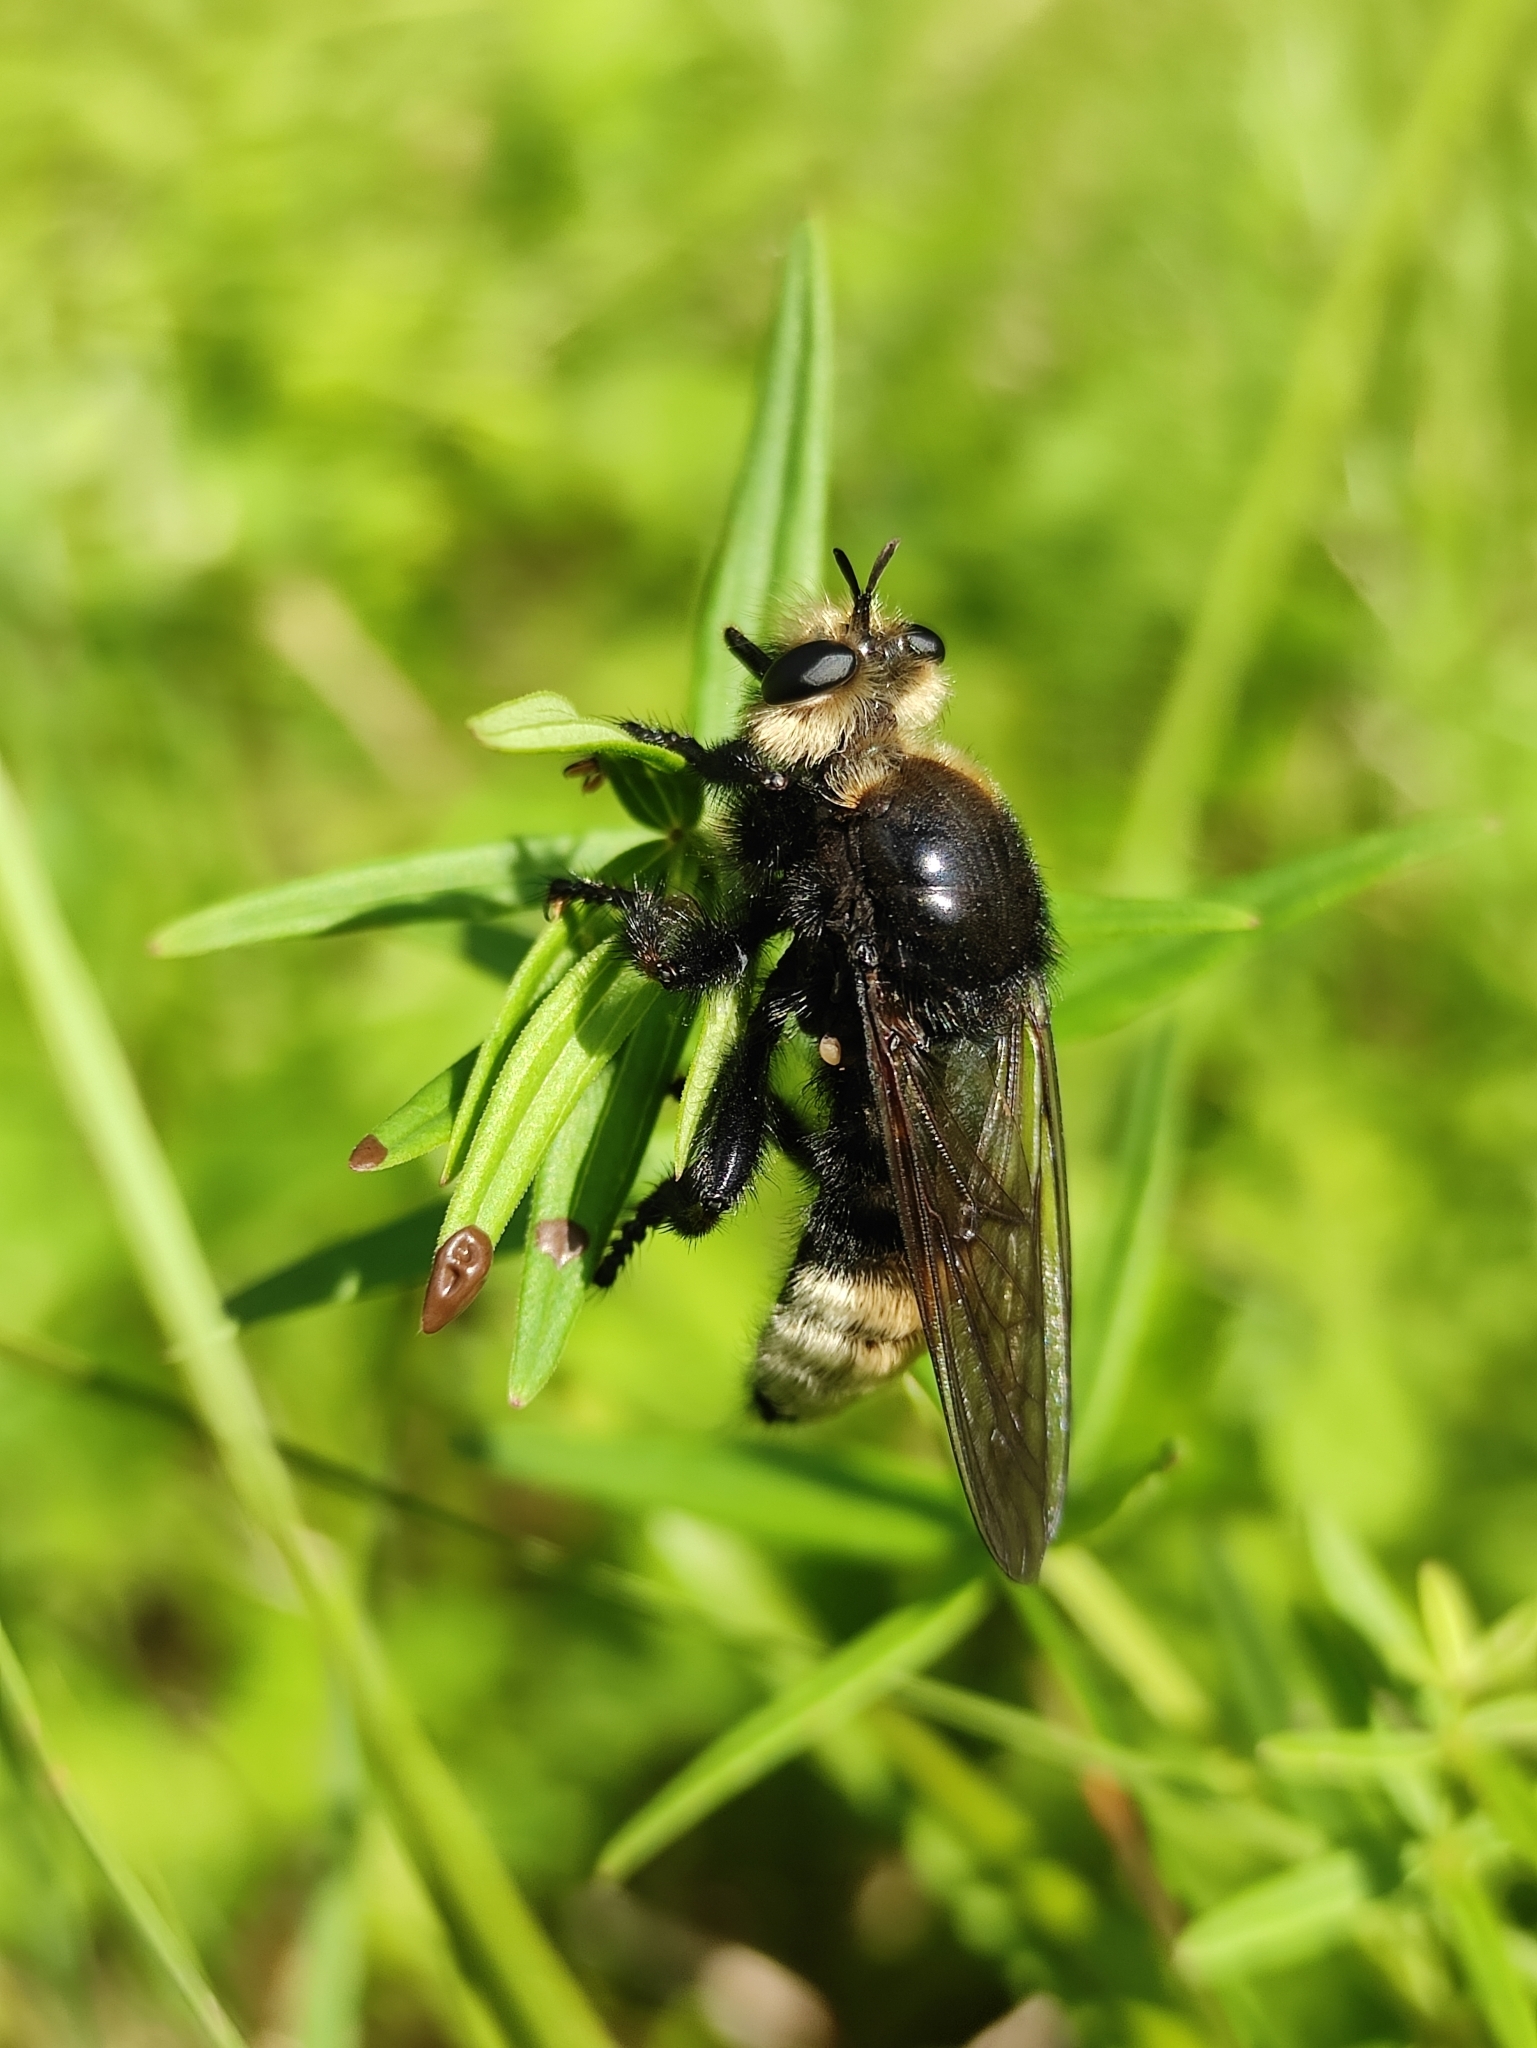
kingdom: Animalia
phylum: Arthropoda
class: Insecta
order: Diptera
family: Asilidae
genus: Laphria
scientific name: Laphria gibbosa
